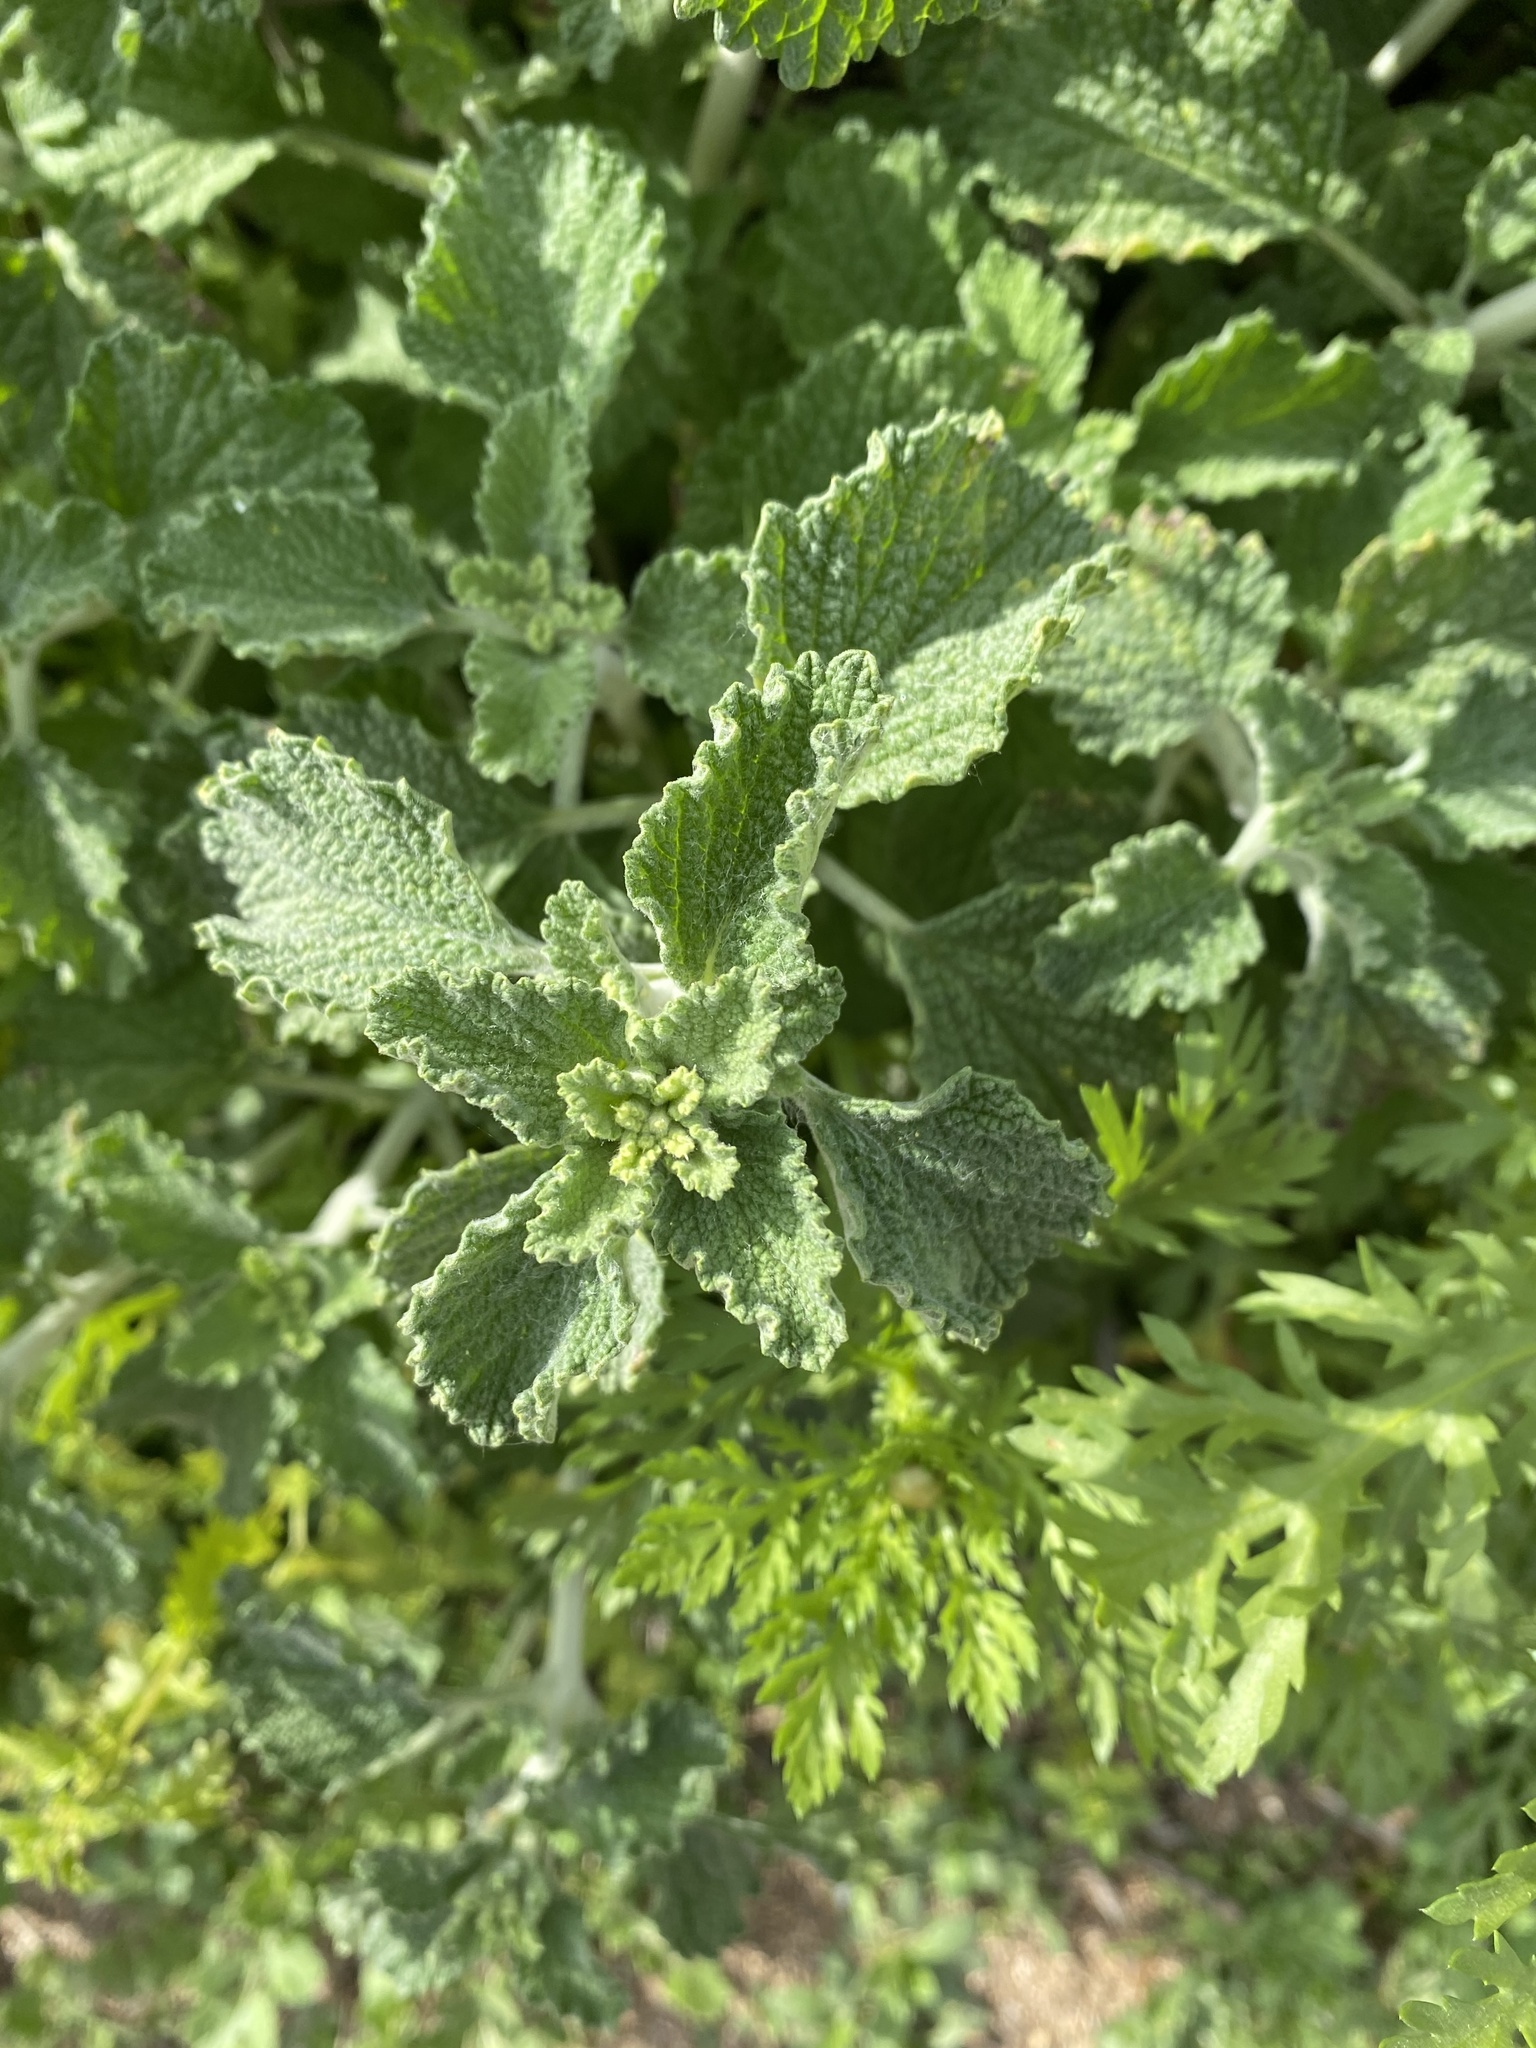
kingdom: Plantae
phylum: Tracheophyta
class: Magnoliopsida
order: Lamiales
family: Lamiaceae
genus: Marrubium
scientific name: Marrubium vulgare
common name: Horehound
